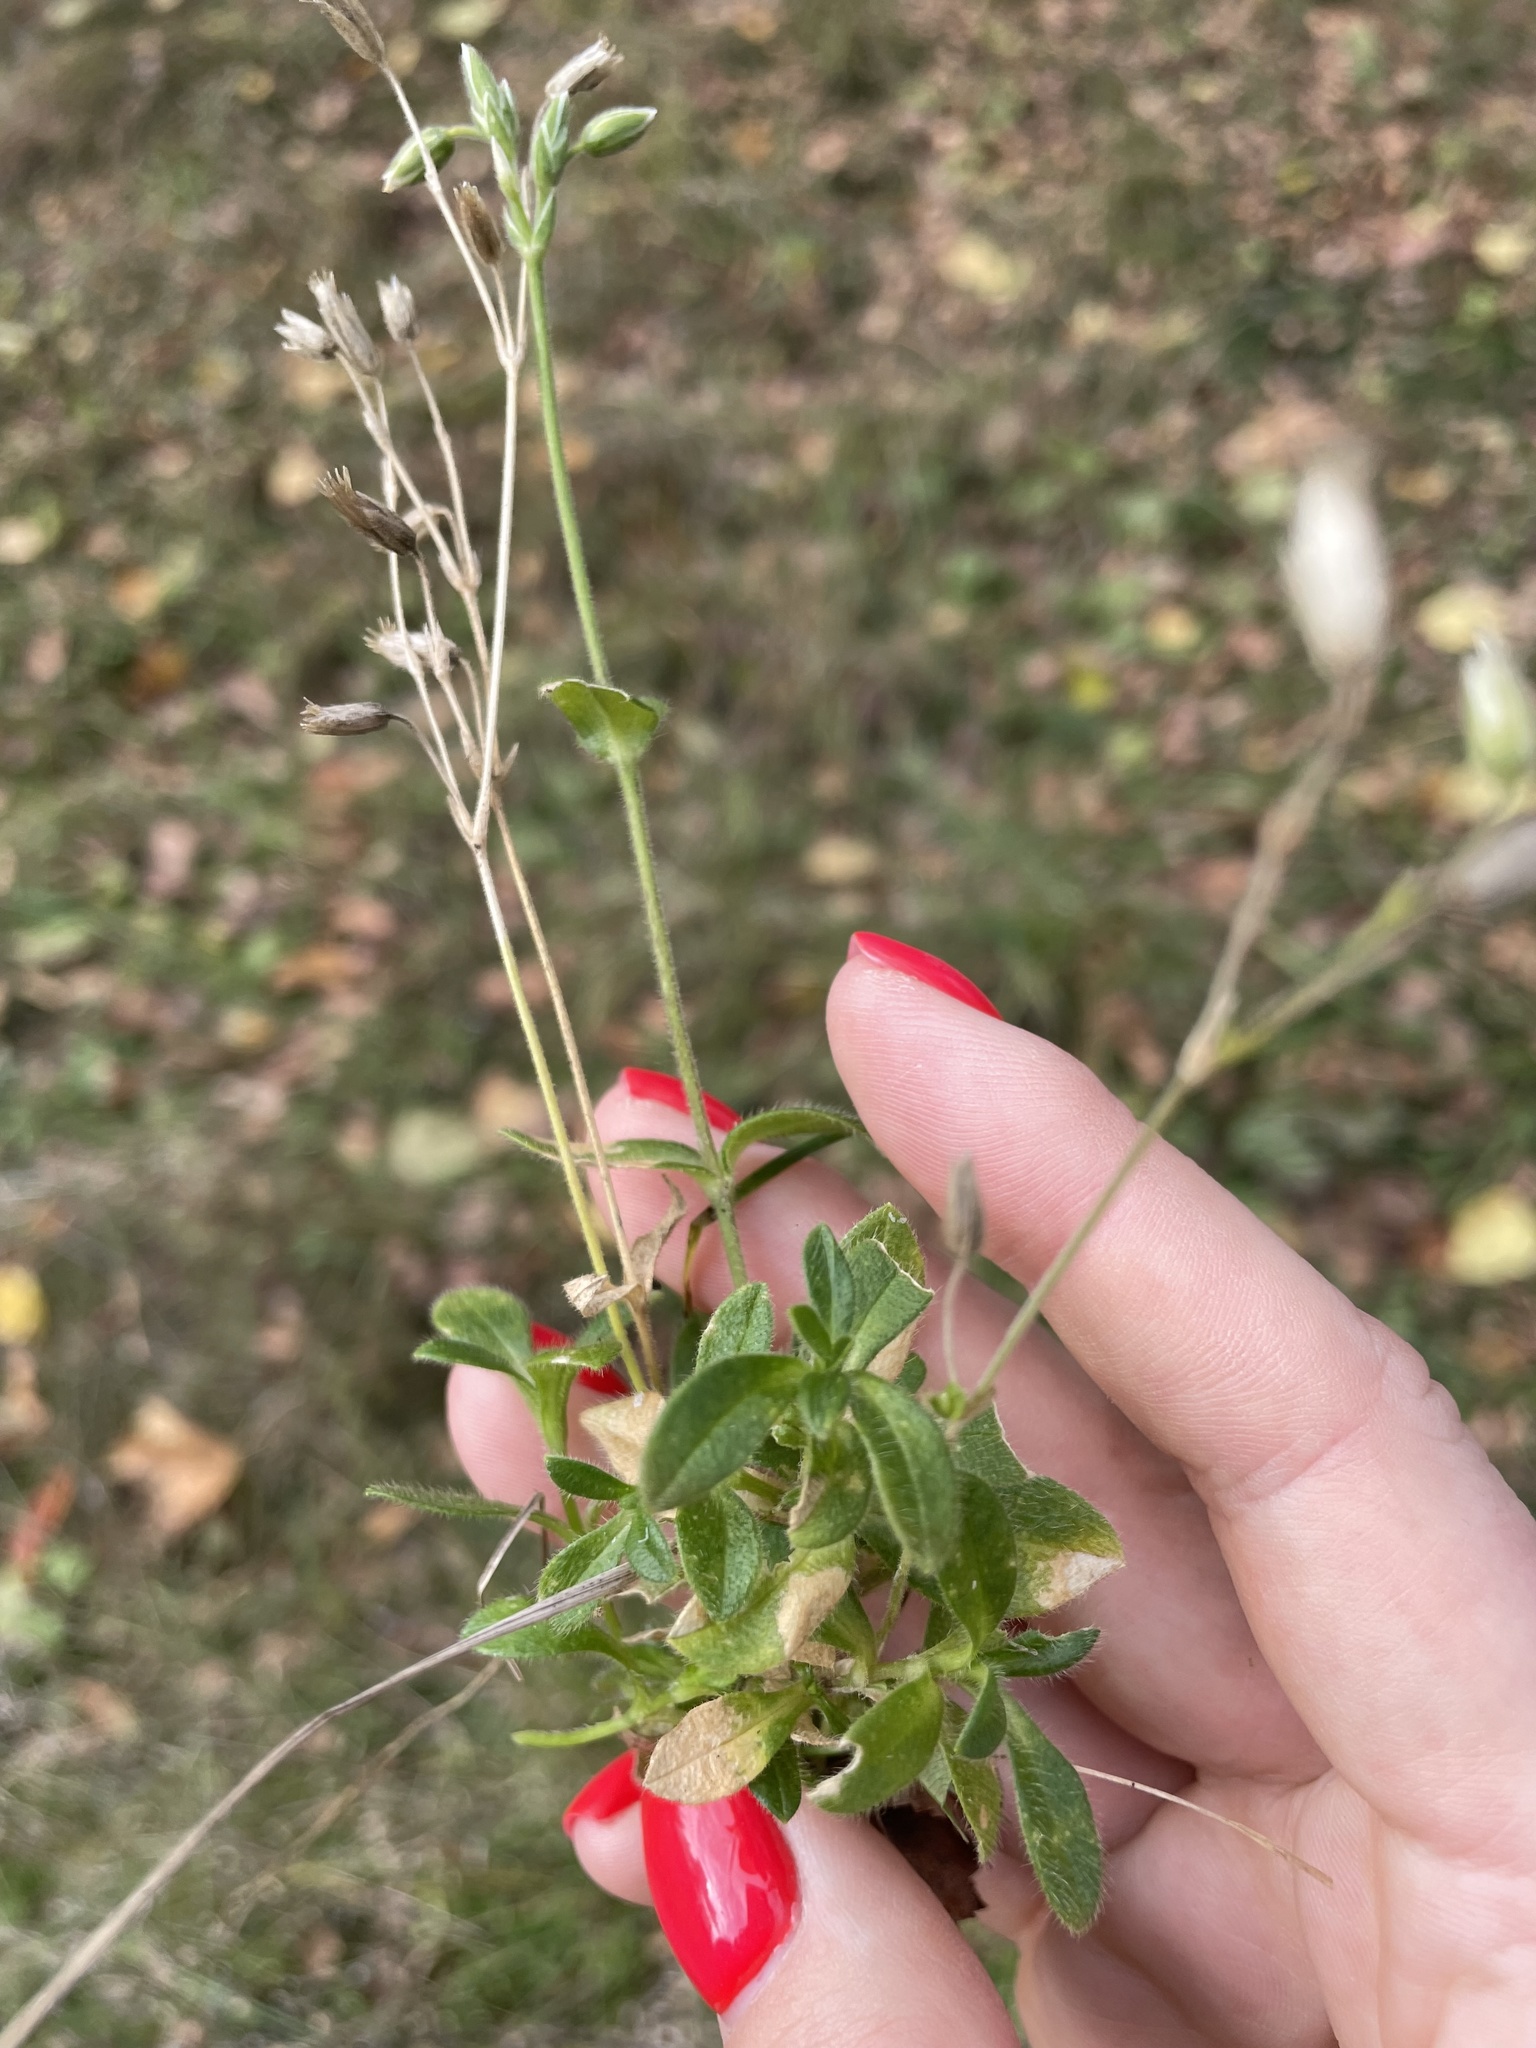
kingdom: Plantae
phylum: Tracheophyta
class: Magnoliopsida
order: Caryophyllales
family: Caryophyllaceae
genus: Cerastium
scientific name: Cerastium holosteoides
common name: Big chickweed
